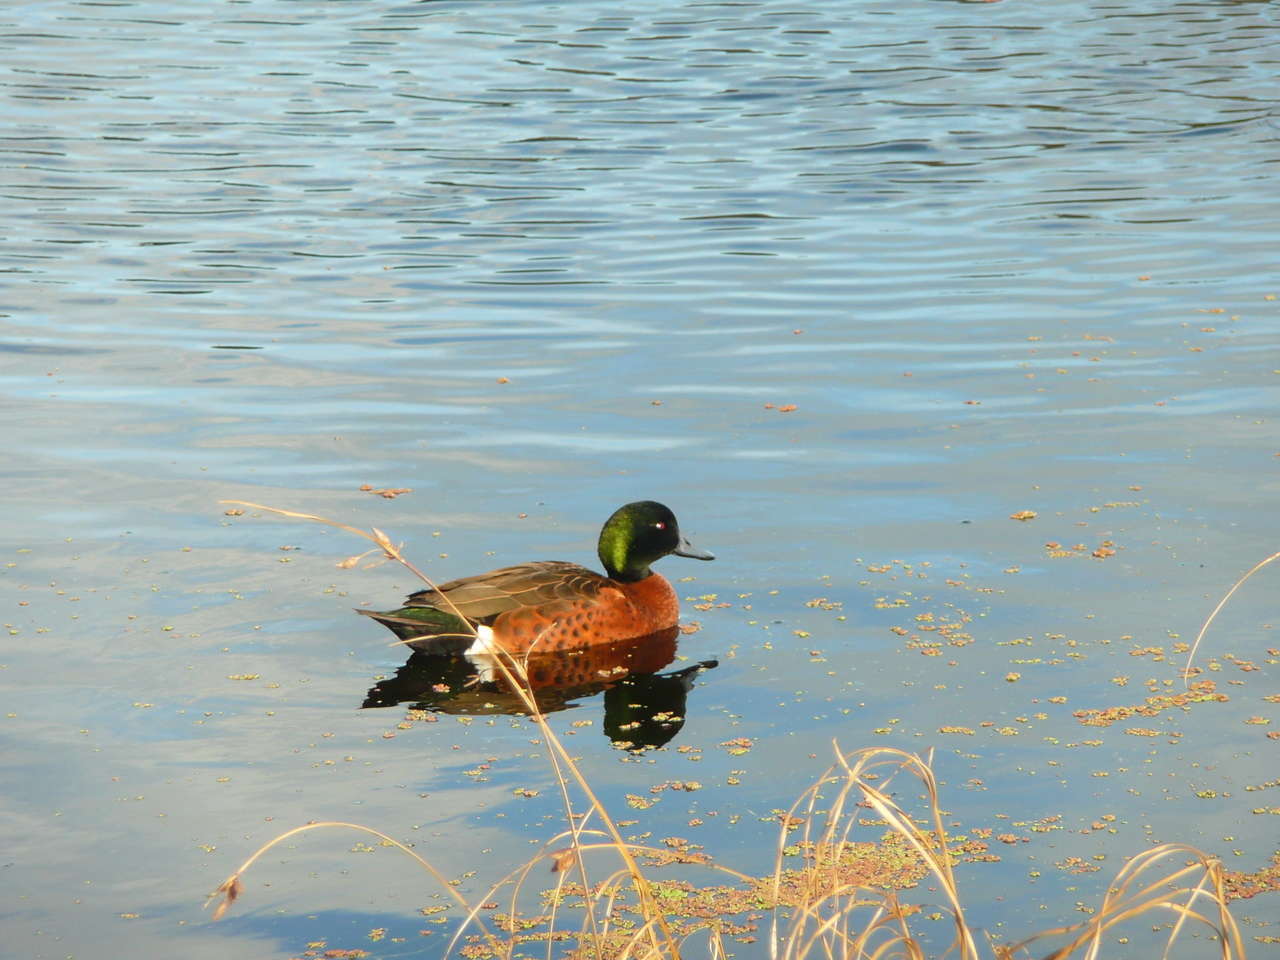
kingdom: Animalia
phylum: Chordata
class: Aves
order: Anseriformes
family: Anatidae
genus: Anas
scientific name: Anas castanea
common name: Chestnut teal
